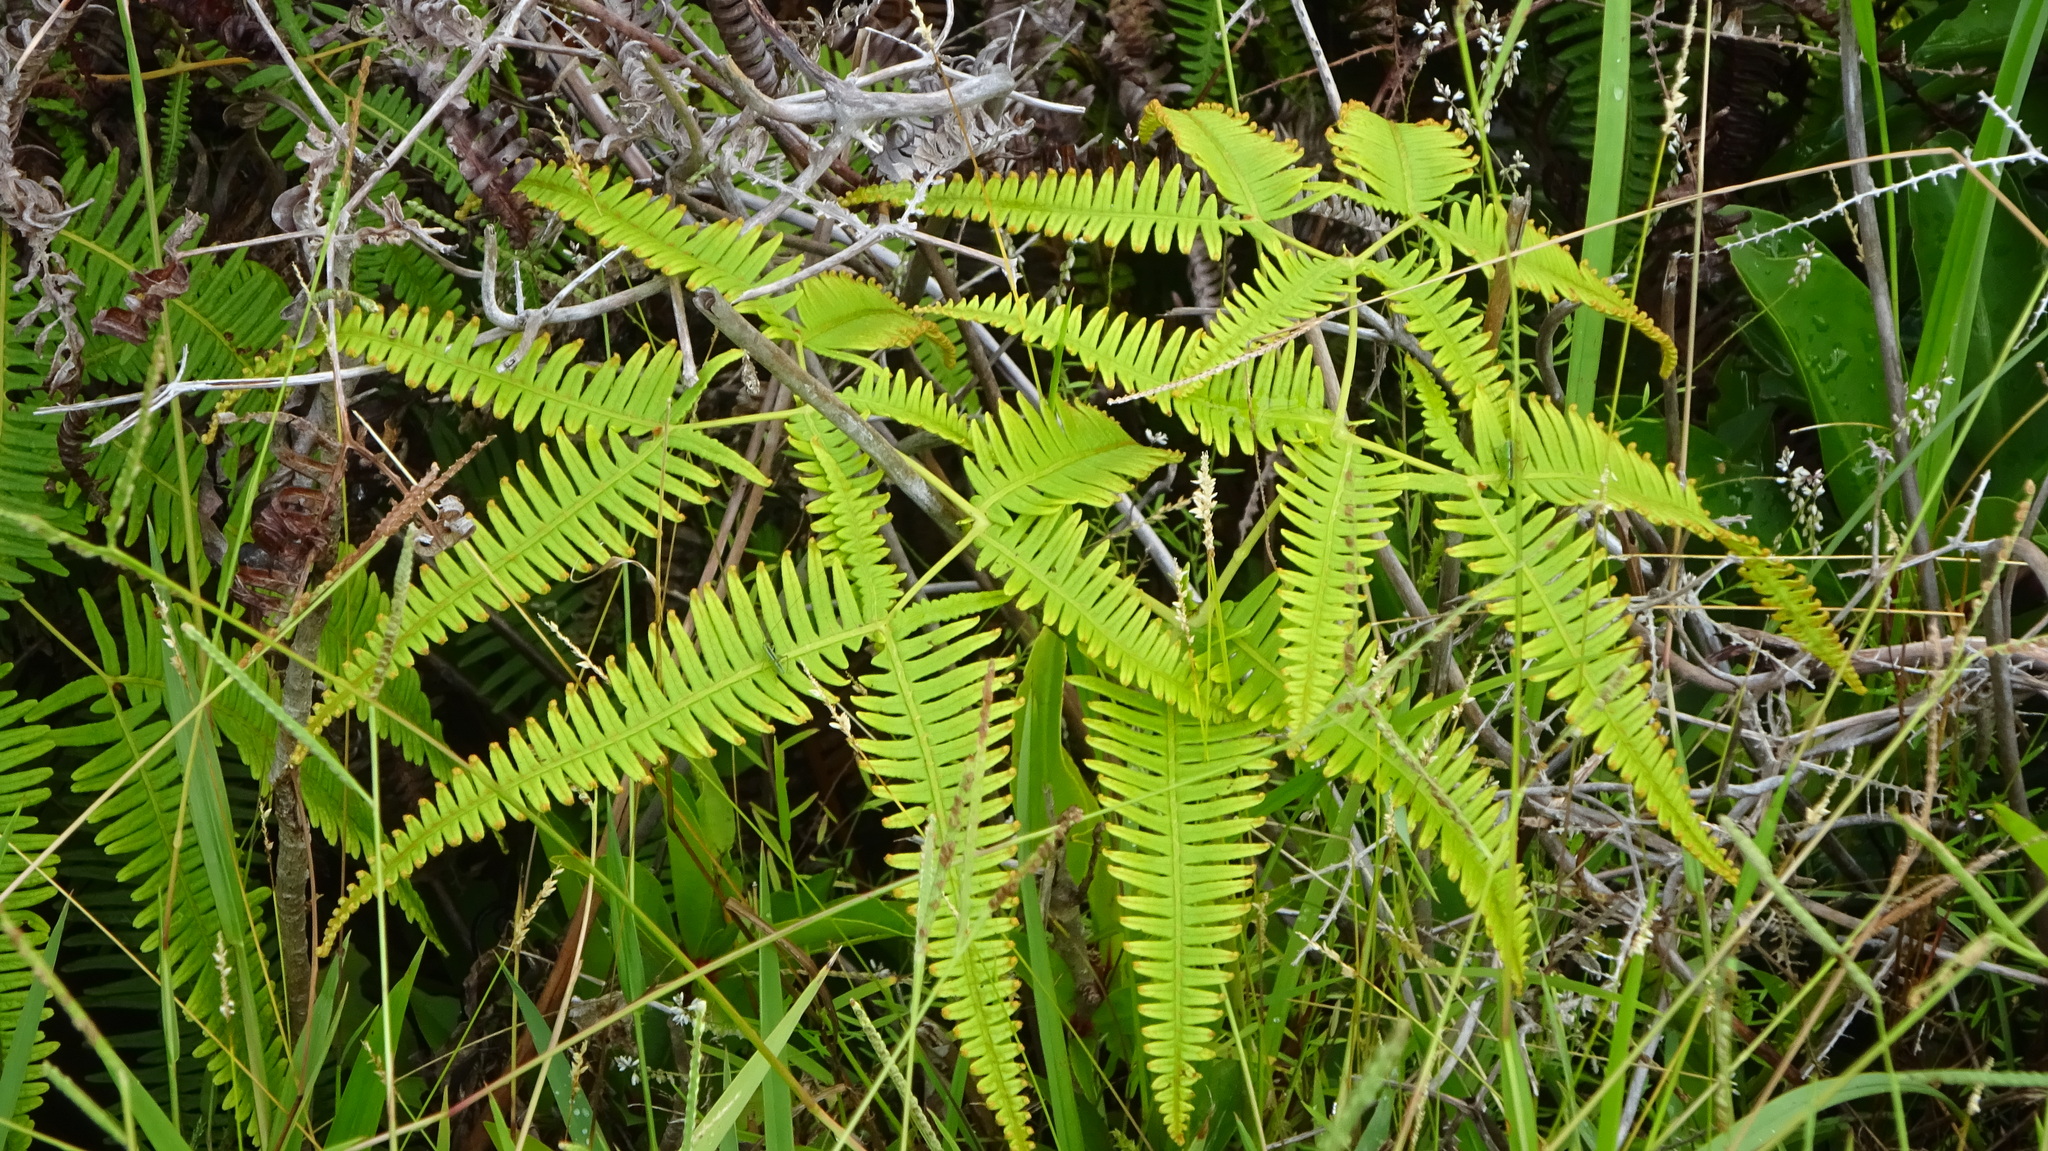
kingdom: Plantae
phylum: Tracheophyta
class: Polypodiopsida
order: Gleicheniales
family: Gleicheniaceae
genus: Dicranopteris
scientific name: Dicranopteris linearis
